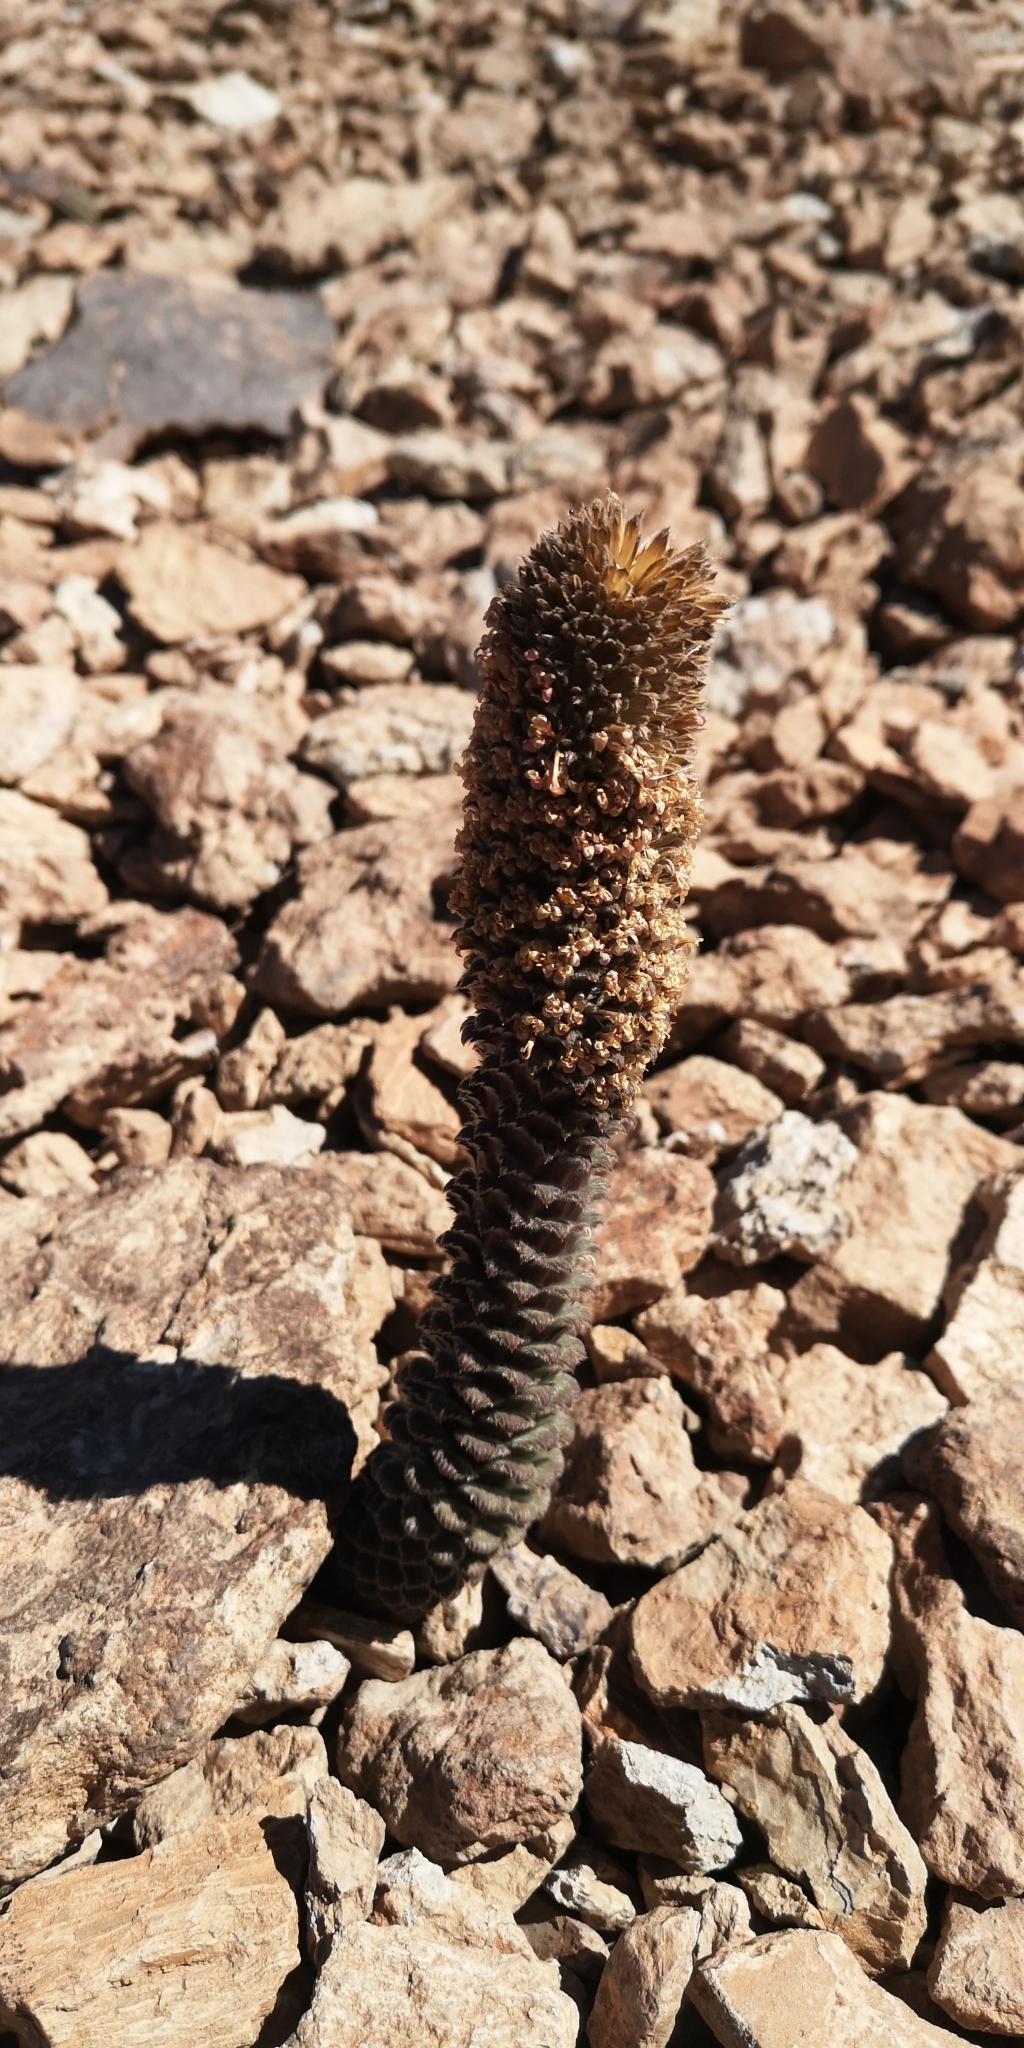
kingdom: Plantae
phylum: Tracheophyta
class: Magnoliopsida
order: Asterales
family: Asteraceae
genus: Nassauvia
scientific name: Nassauvia pinnigera
